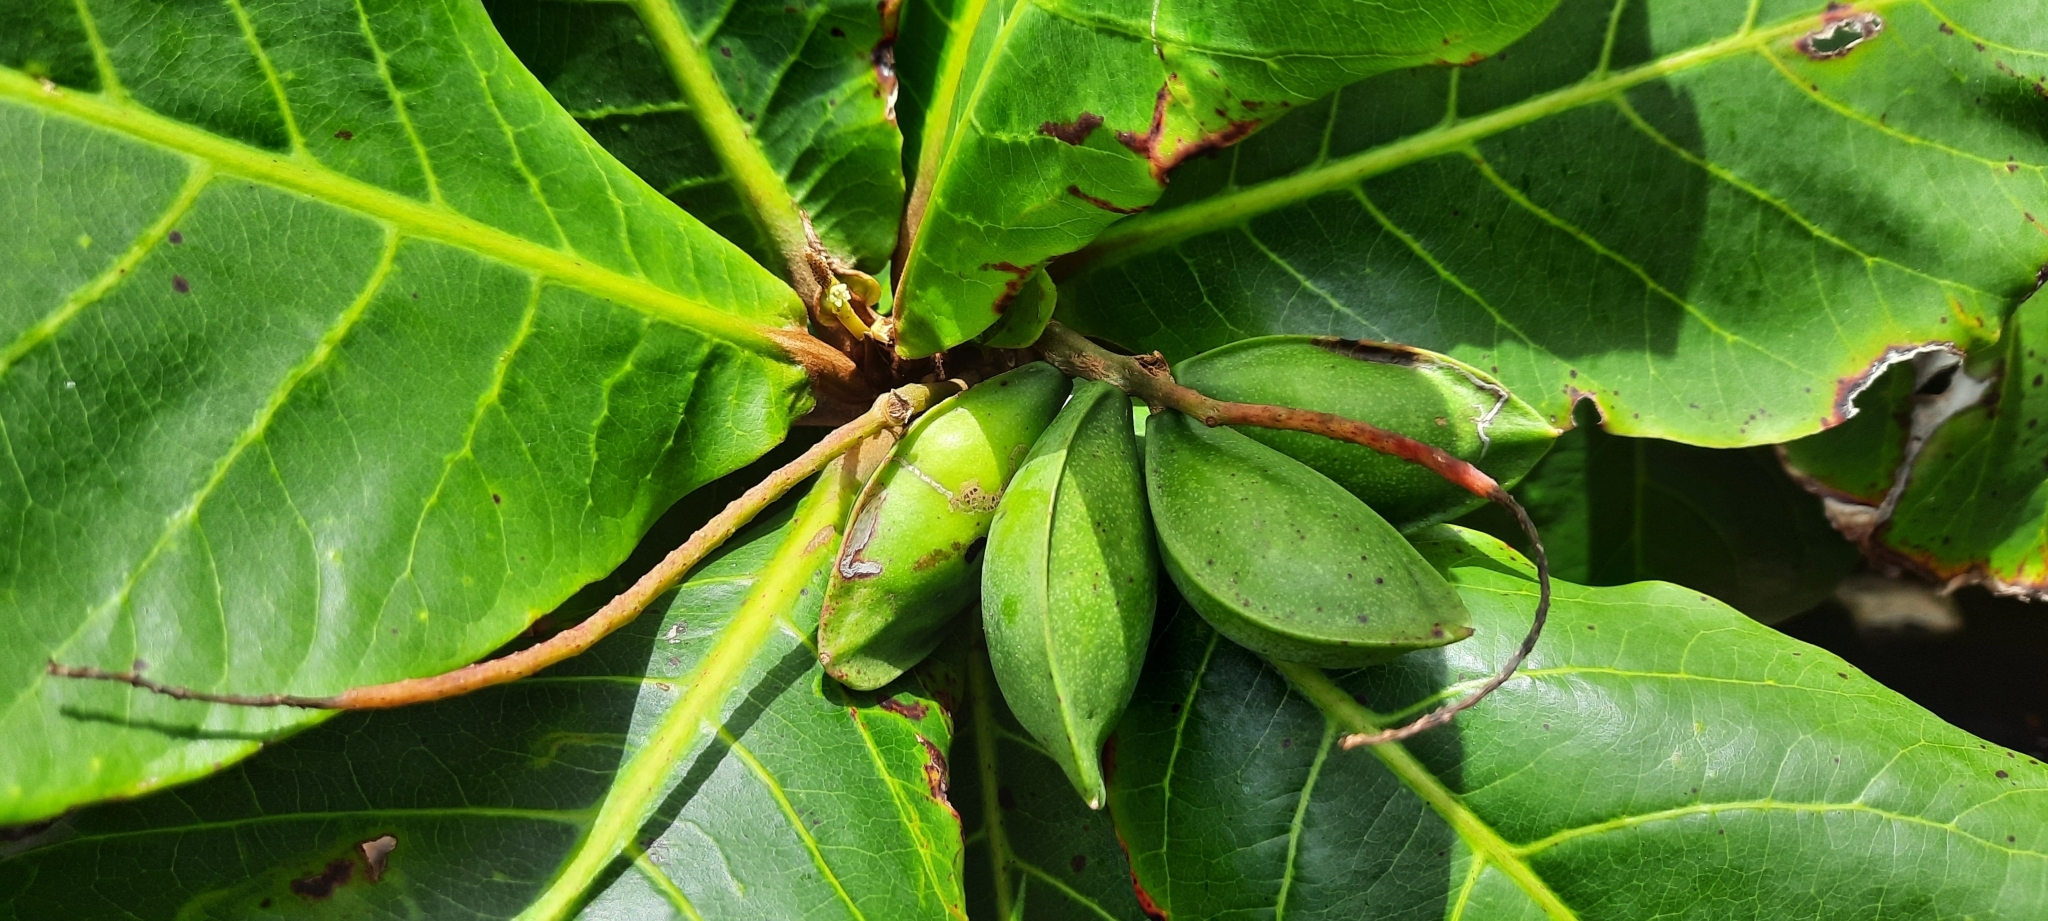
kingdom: Plantae
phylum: Tracheophyta
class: Magnoliopsida
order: Myrtales
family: Combretaceae
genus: Terminalia
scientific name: Terminalia catappa
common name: Tropical almond
